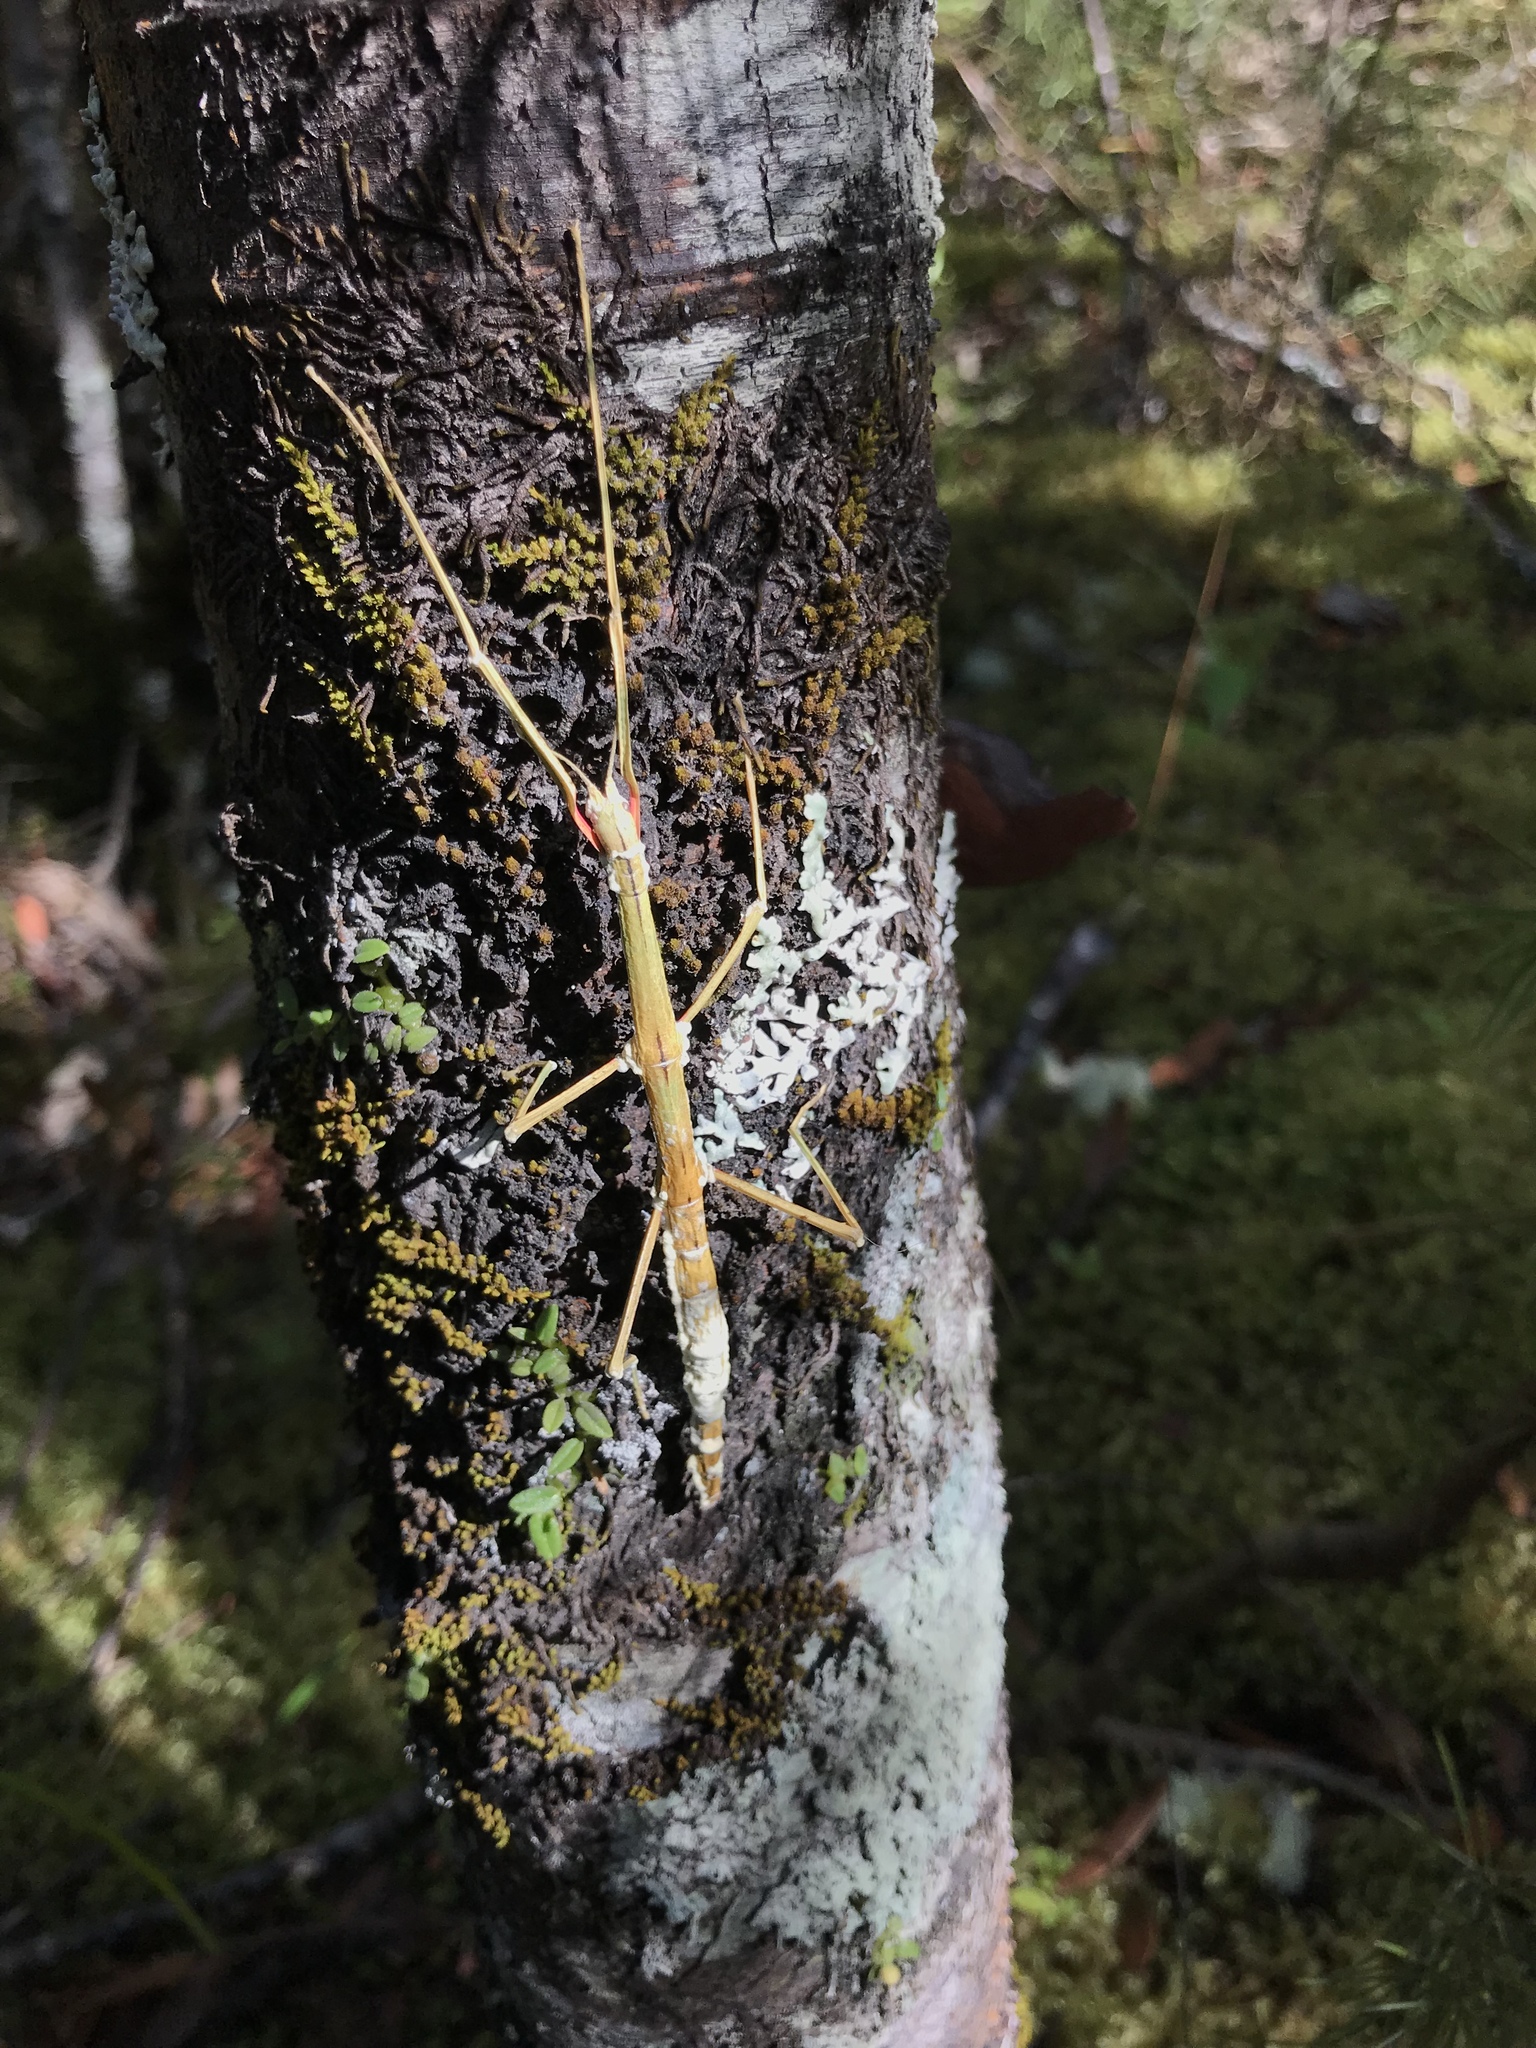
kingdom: Animalia
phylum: Arthropoda
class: Insecta
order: Phasmida
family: Phasmatidae
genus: Clitarchus
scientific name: Clitarchus hookeri
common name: Smooth stick insect
